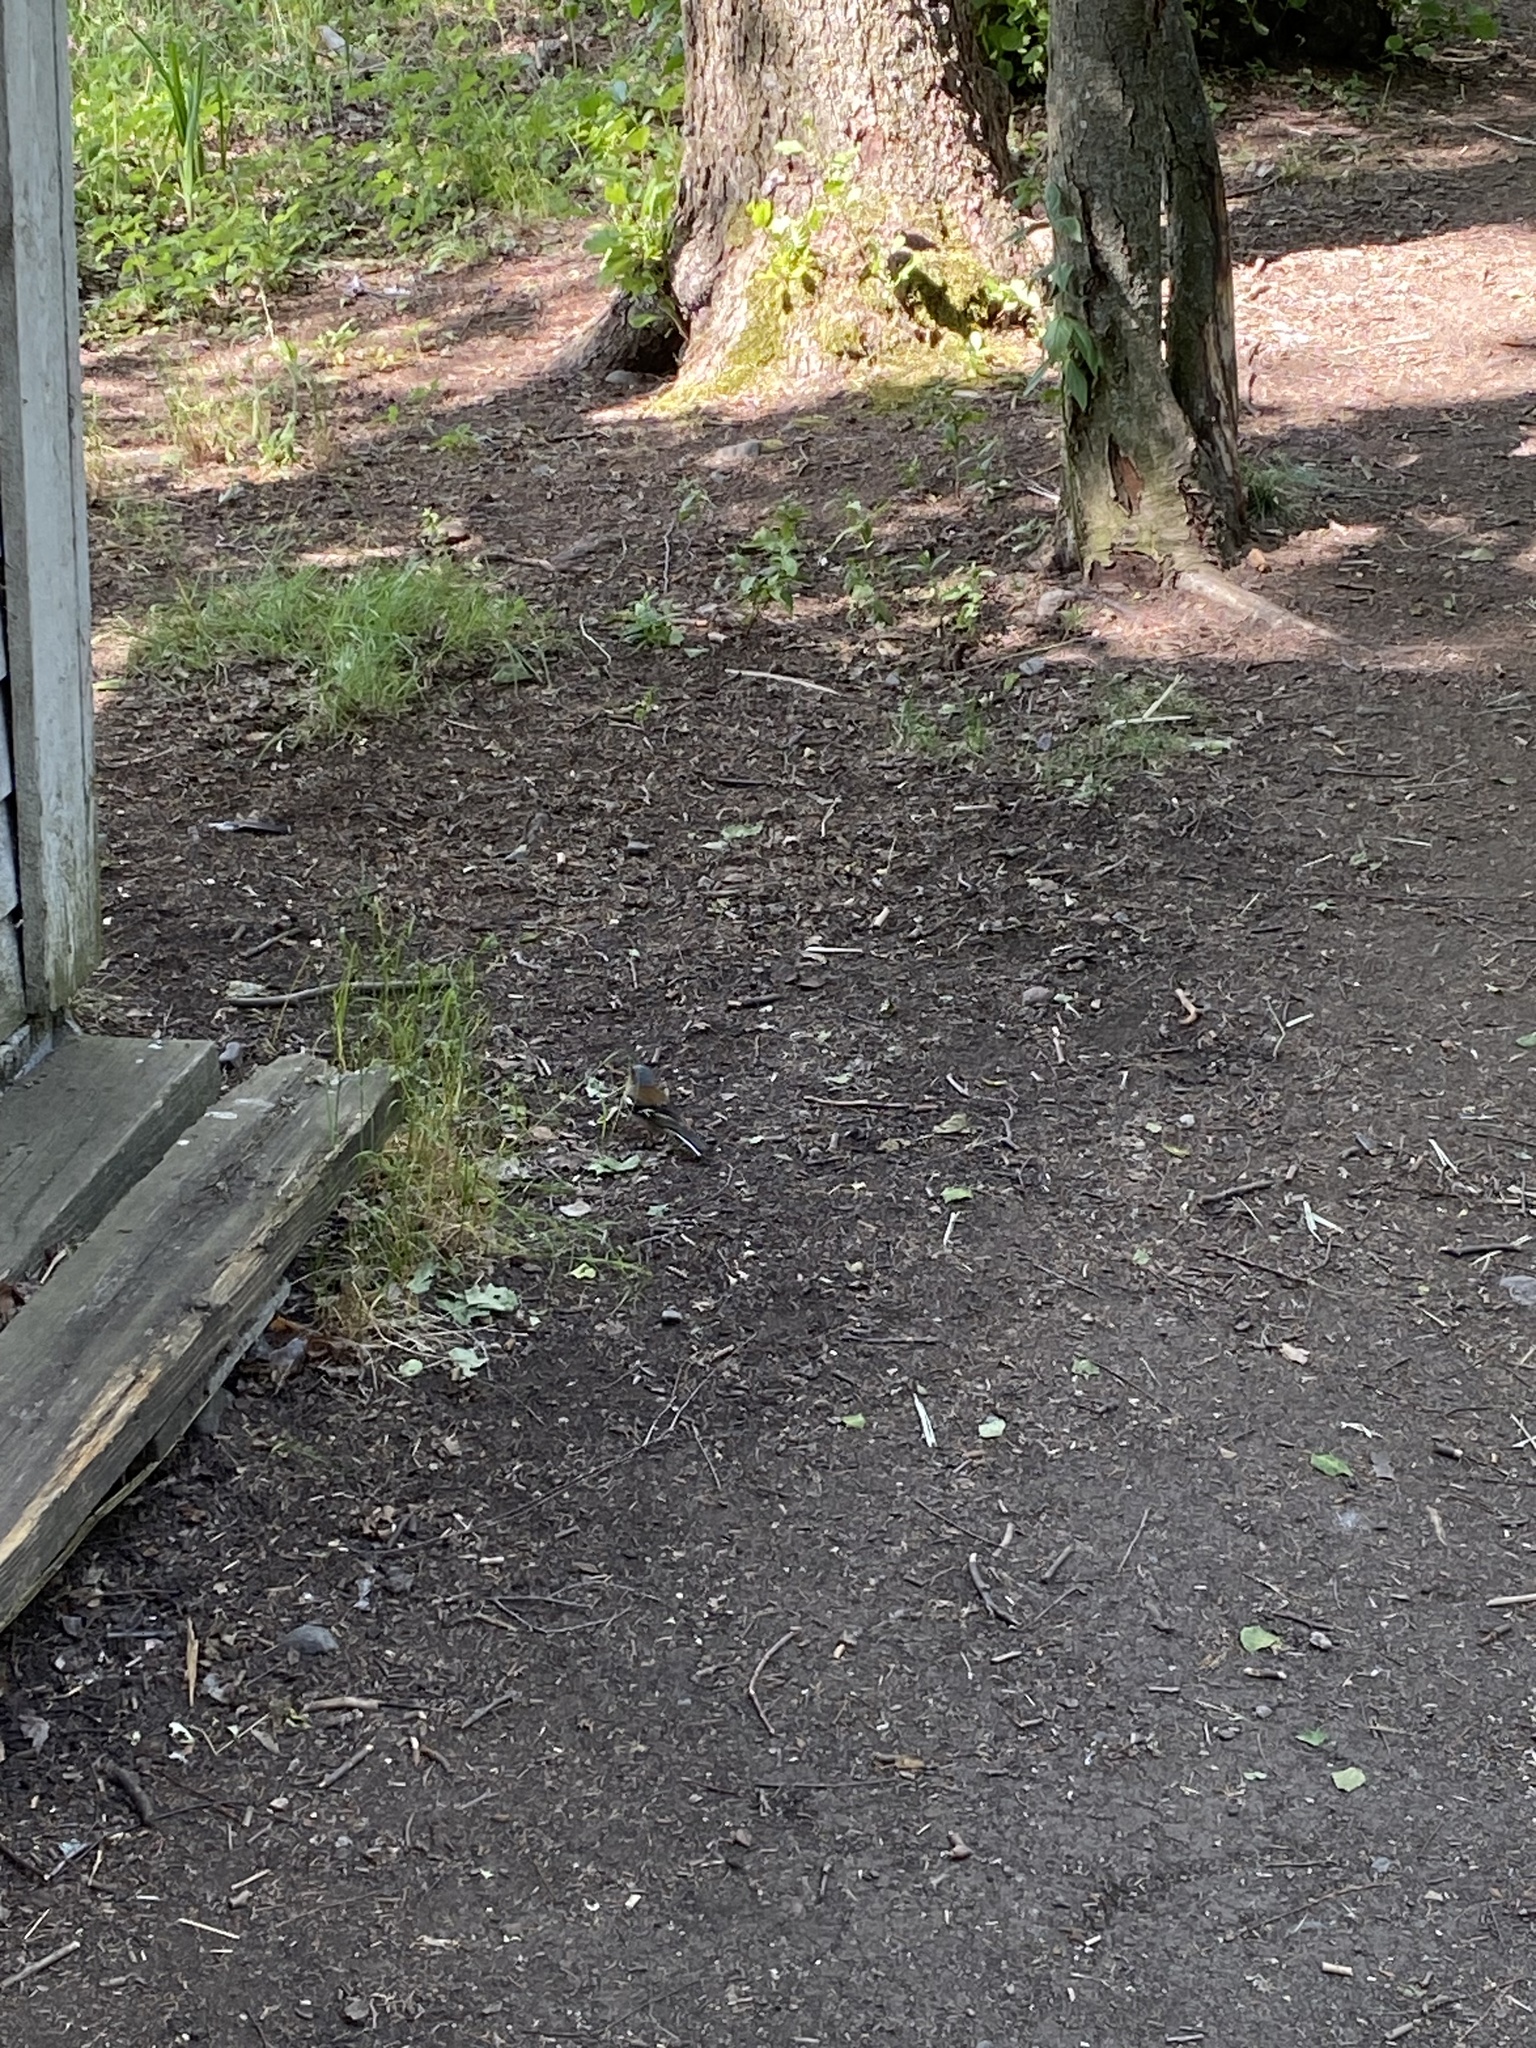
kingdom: Animalia
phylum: Chordata
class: Aves
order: Passeriformes
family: Fringillidae
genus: Fringilla
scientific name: Fringilla coelebs
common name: Common chaffinch
